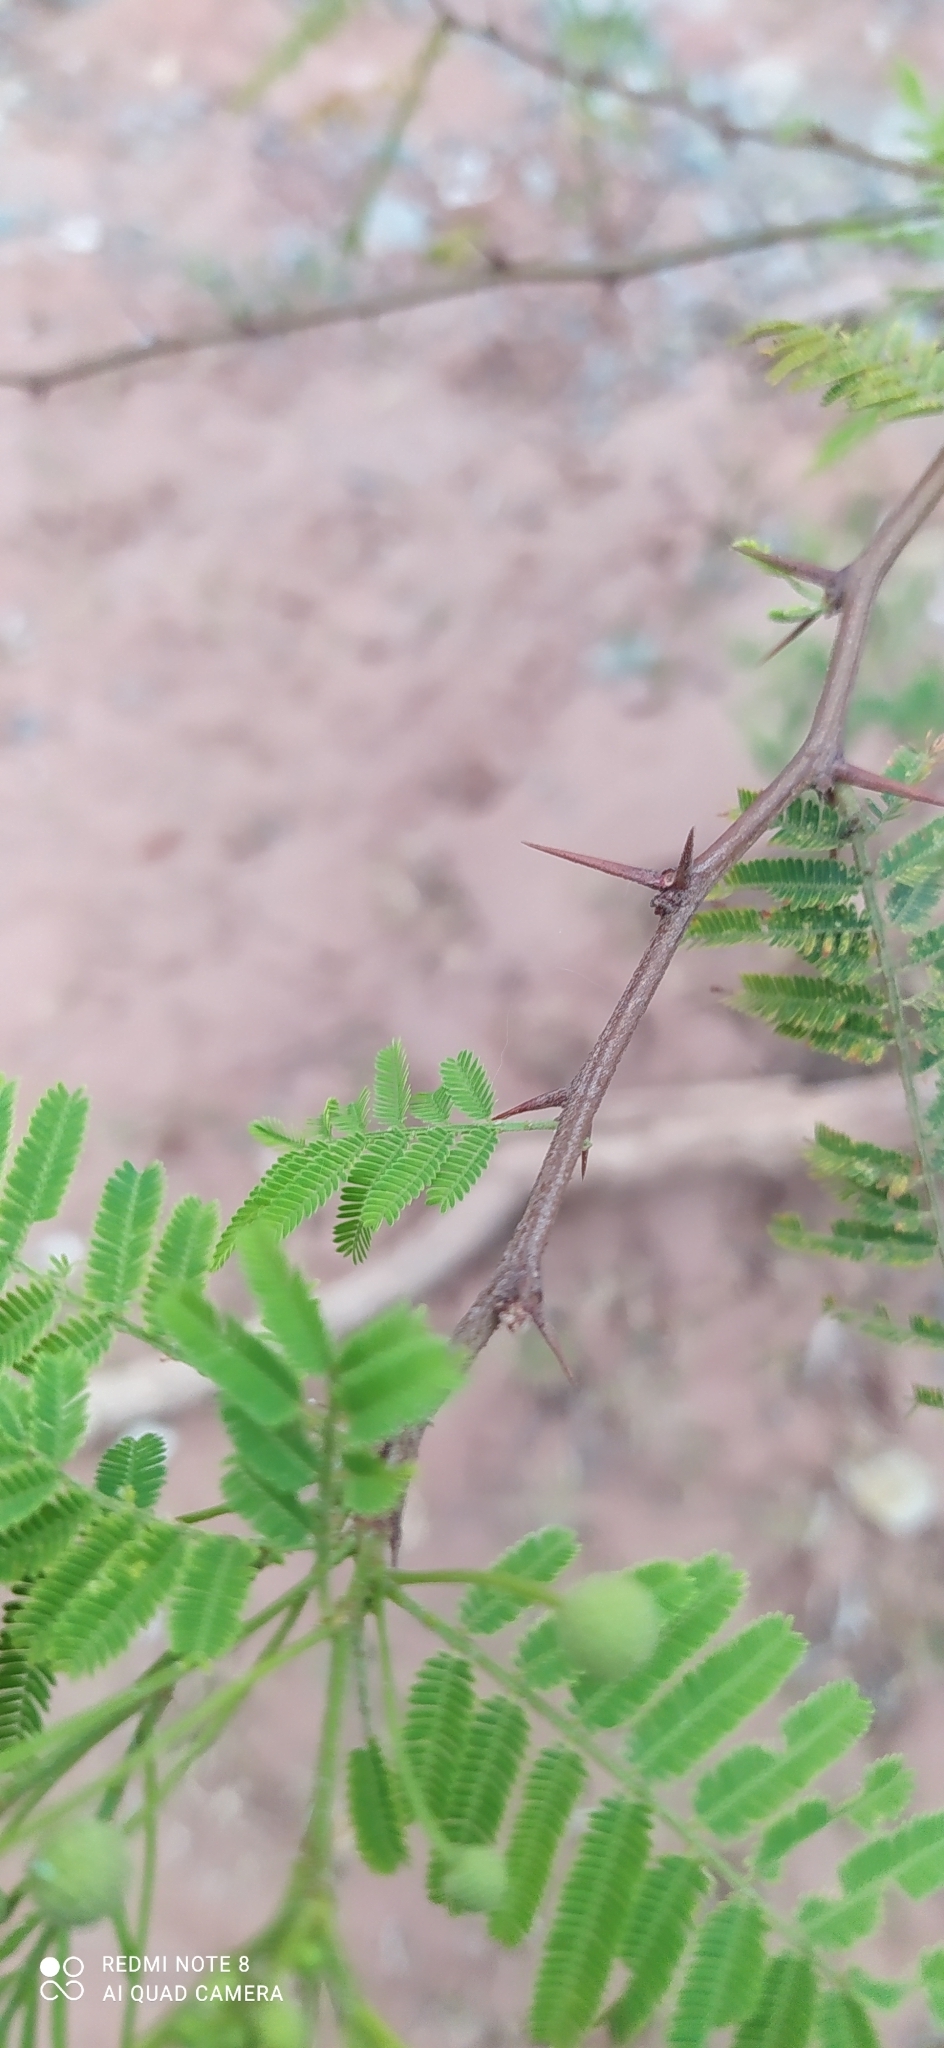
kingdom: Plantae
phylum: Tracheophyta
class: Magnoliopsida
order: Fabales
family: Fabaceae
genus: Vachellia
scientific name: Vachellia aroma
